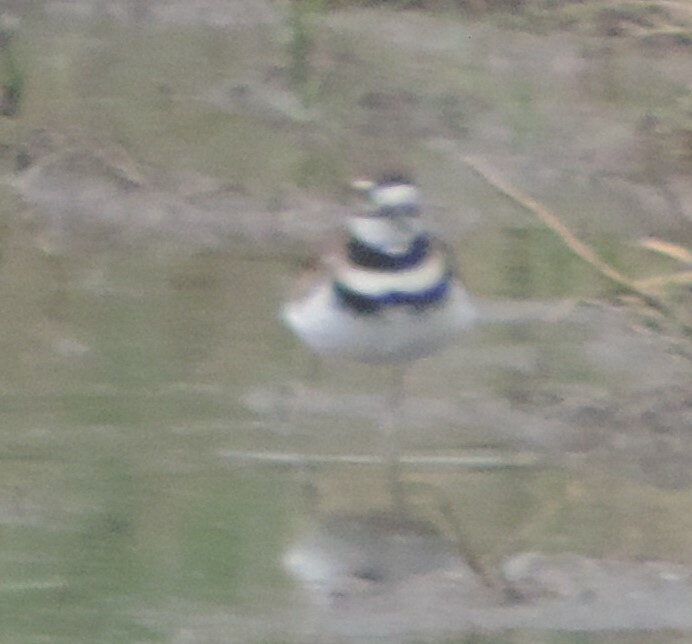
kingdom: Animalia
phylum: Chordata
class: Aves
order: Charadriiformes
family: Charadriidae
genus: Charadrius
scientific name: Charadrius vociferus
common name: Killdeer
